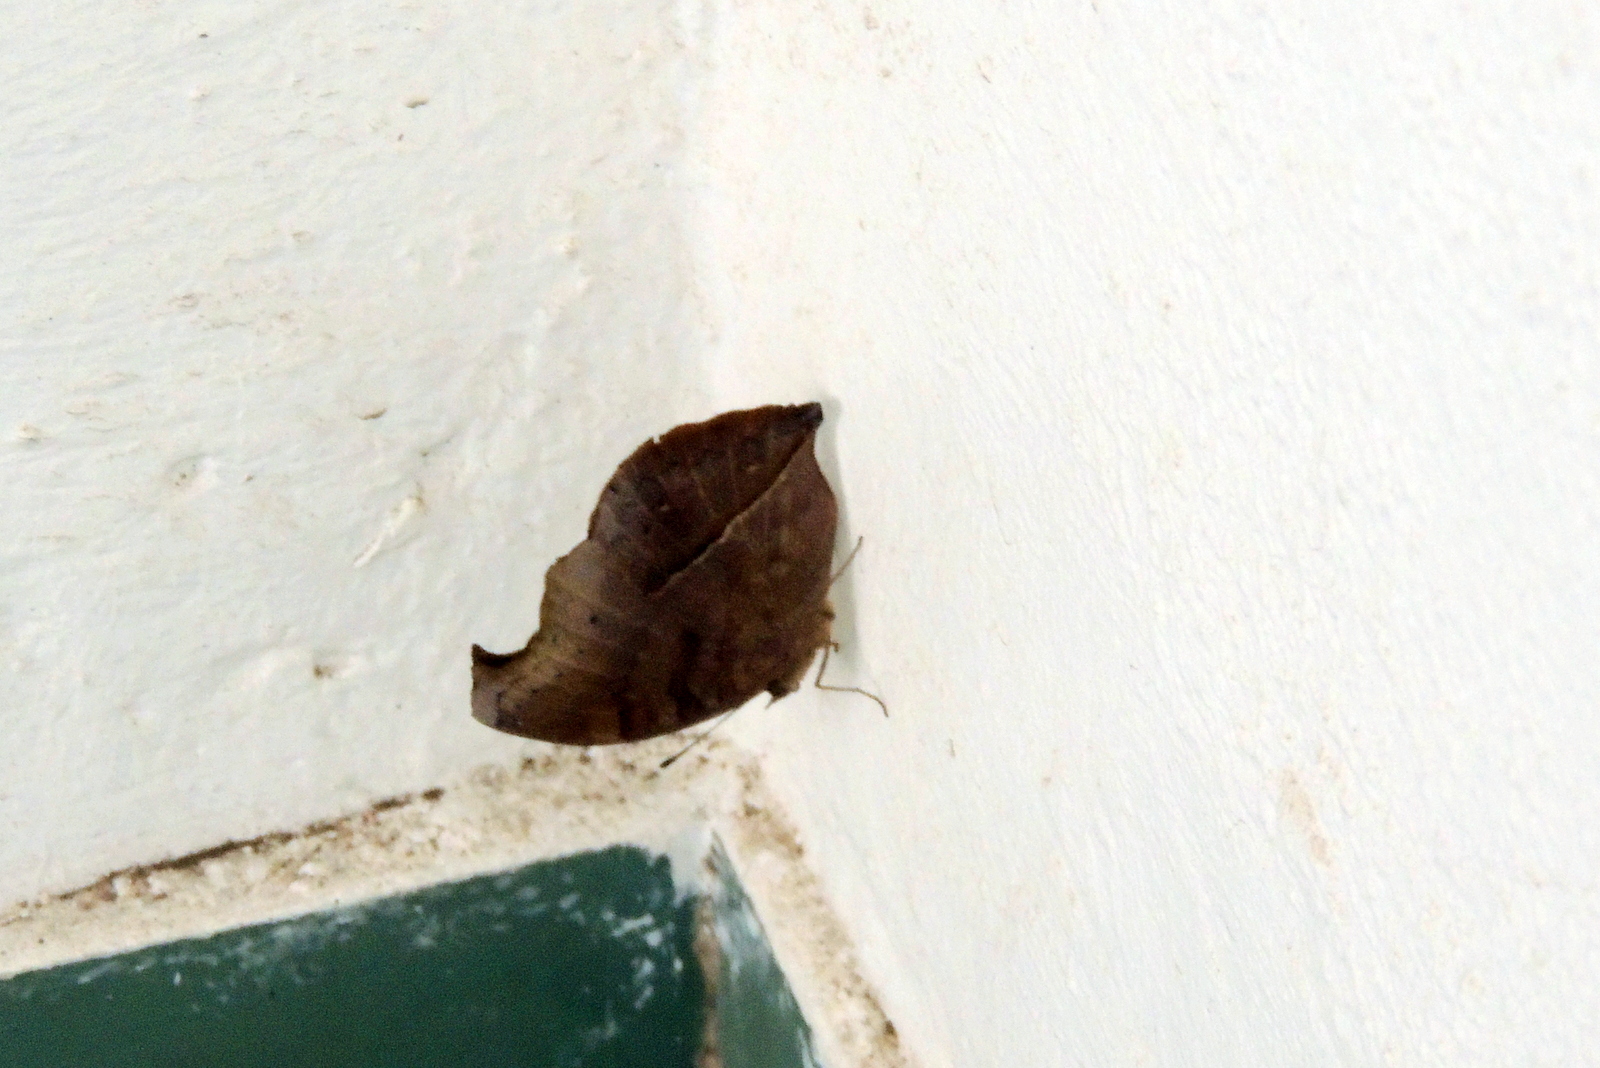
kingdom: Animalia
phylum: Arthropoda
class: Insecta
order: Lepidoptera
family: Nymphalidae
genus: Junonia
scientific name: Junonia iphita
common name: Chocolate pansy
